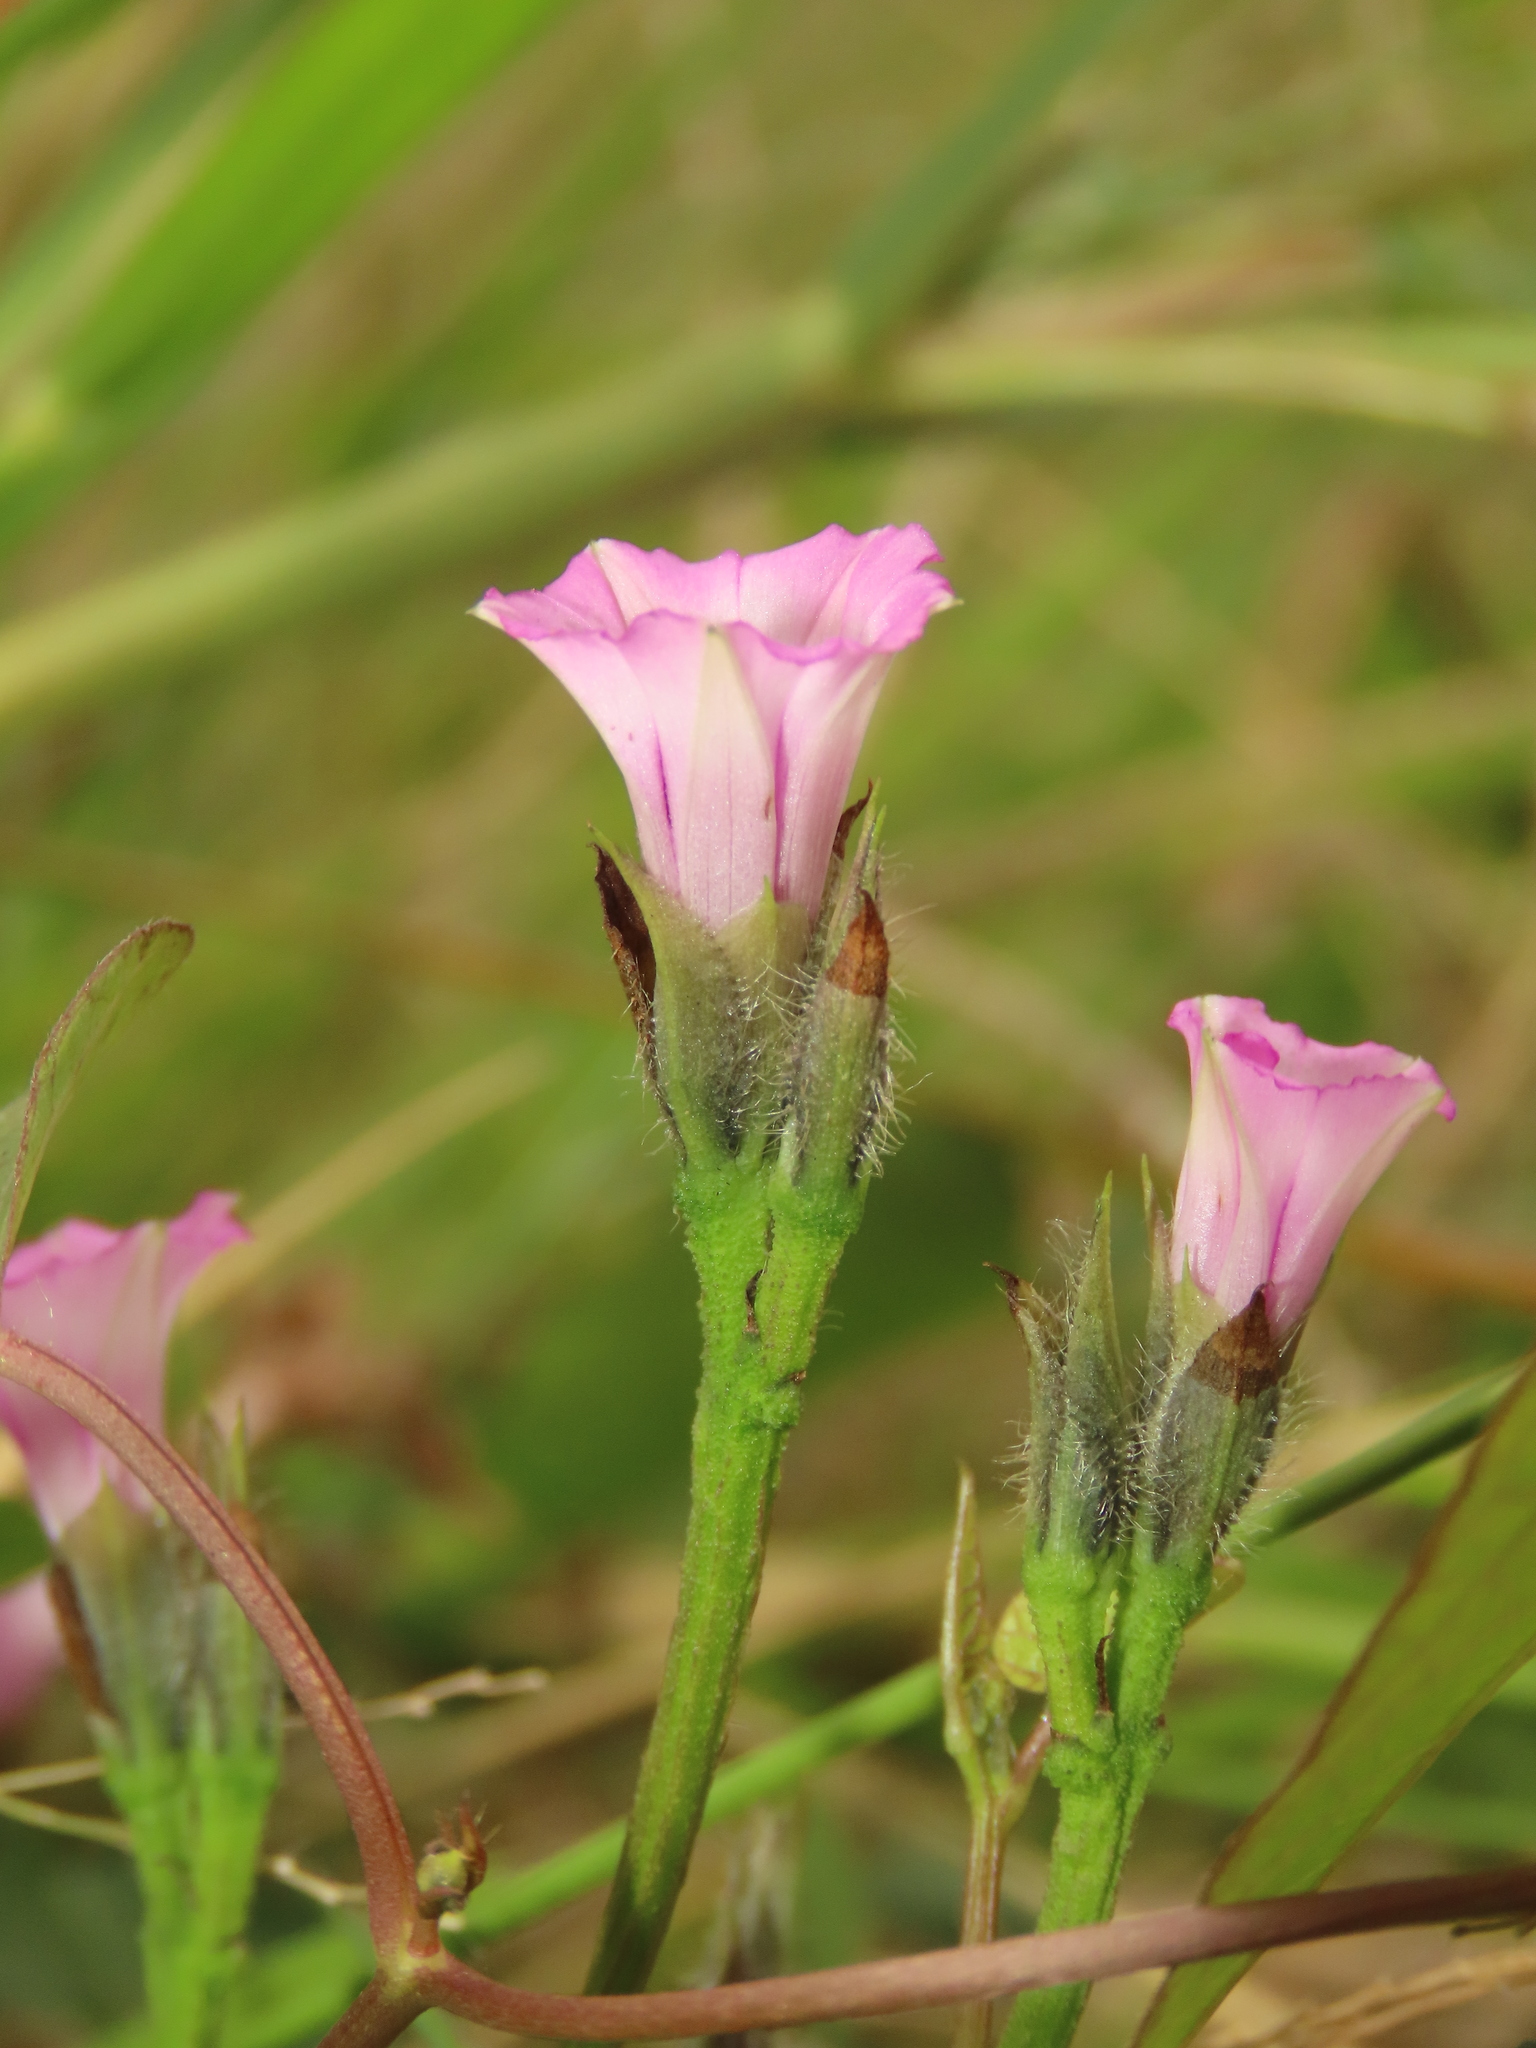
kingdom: Plantae
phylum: Tracheophyta
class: Magnoliopsida
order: Solanales
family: Convolvulaceae
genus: Ipomoea
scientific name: Ipomoea triloba
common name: Little-bell
